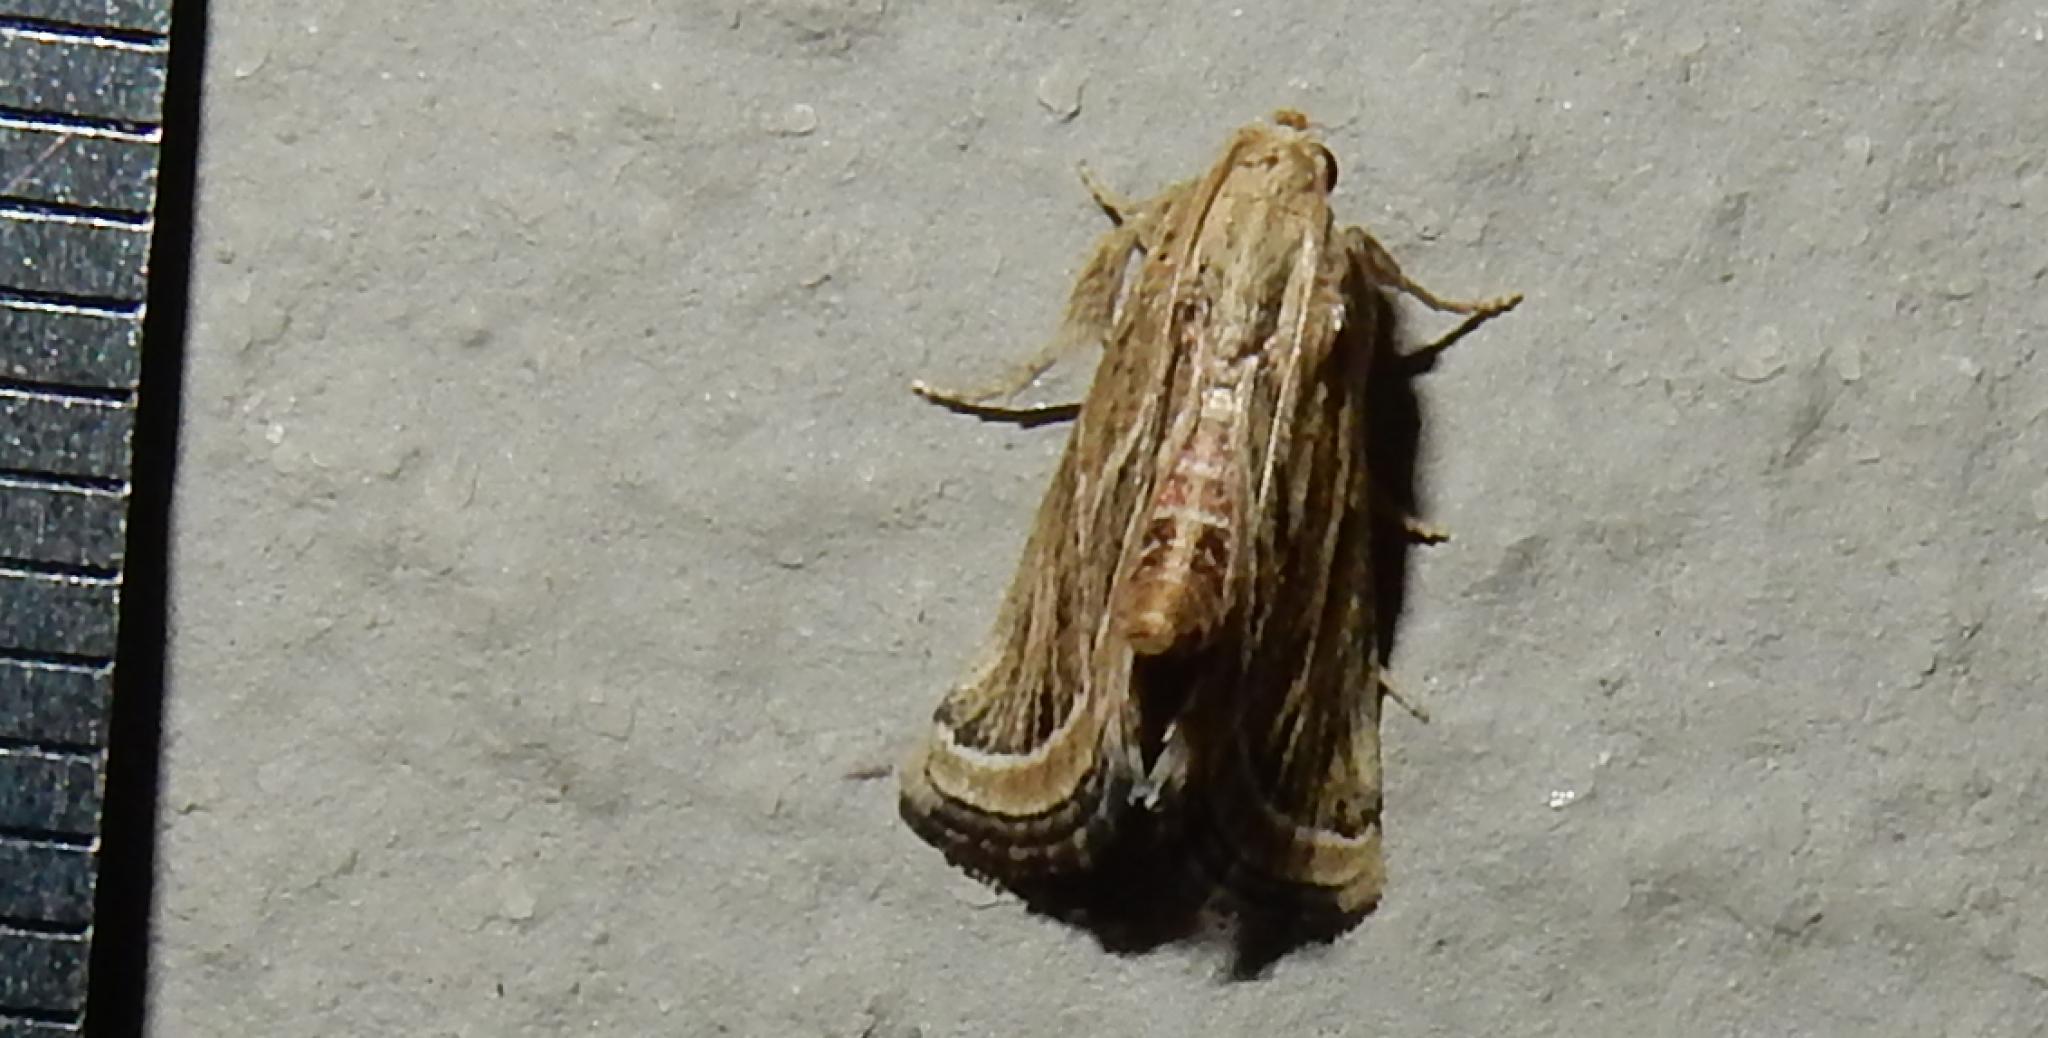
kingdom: Animalia
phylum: Arthropoda
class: Insecta
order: Lepidoptera
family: Pyralidae
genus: Loryma
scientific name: Loryma sentiusalis
